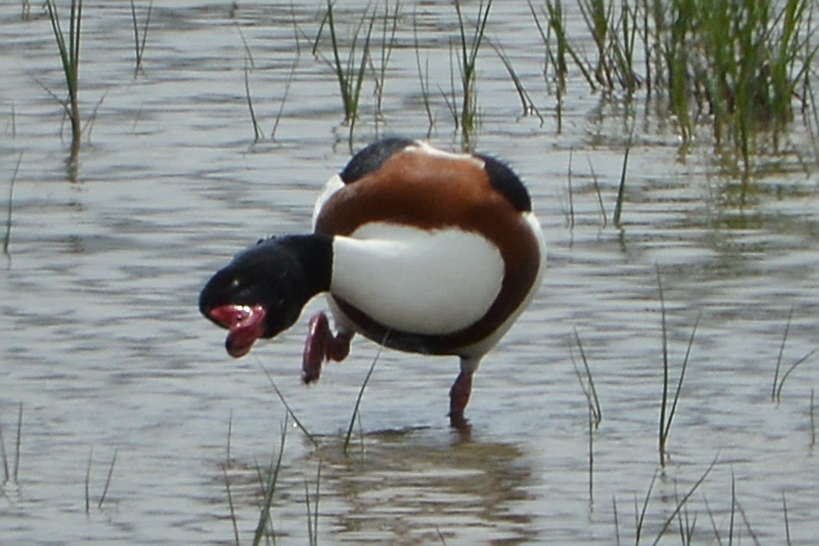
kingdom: Animalia
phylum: Chordata
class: Aves
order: Anseriformes
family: Anatidae
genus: Tadorna
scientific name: Tadorna tadorna
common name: Common shelduck
